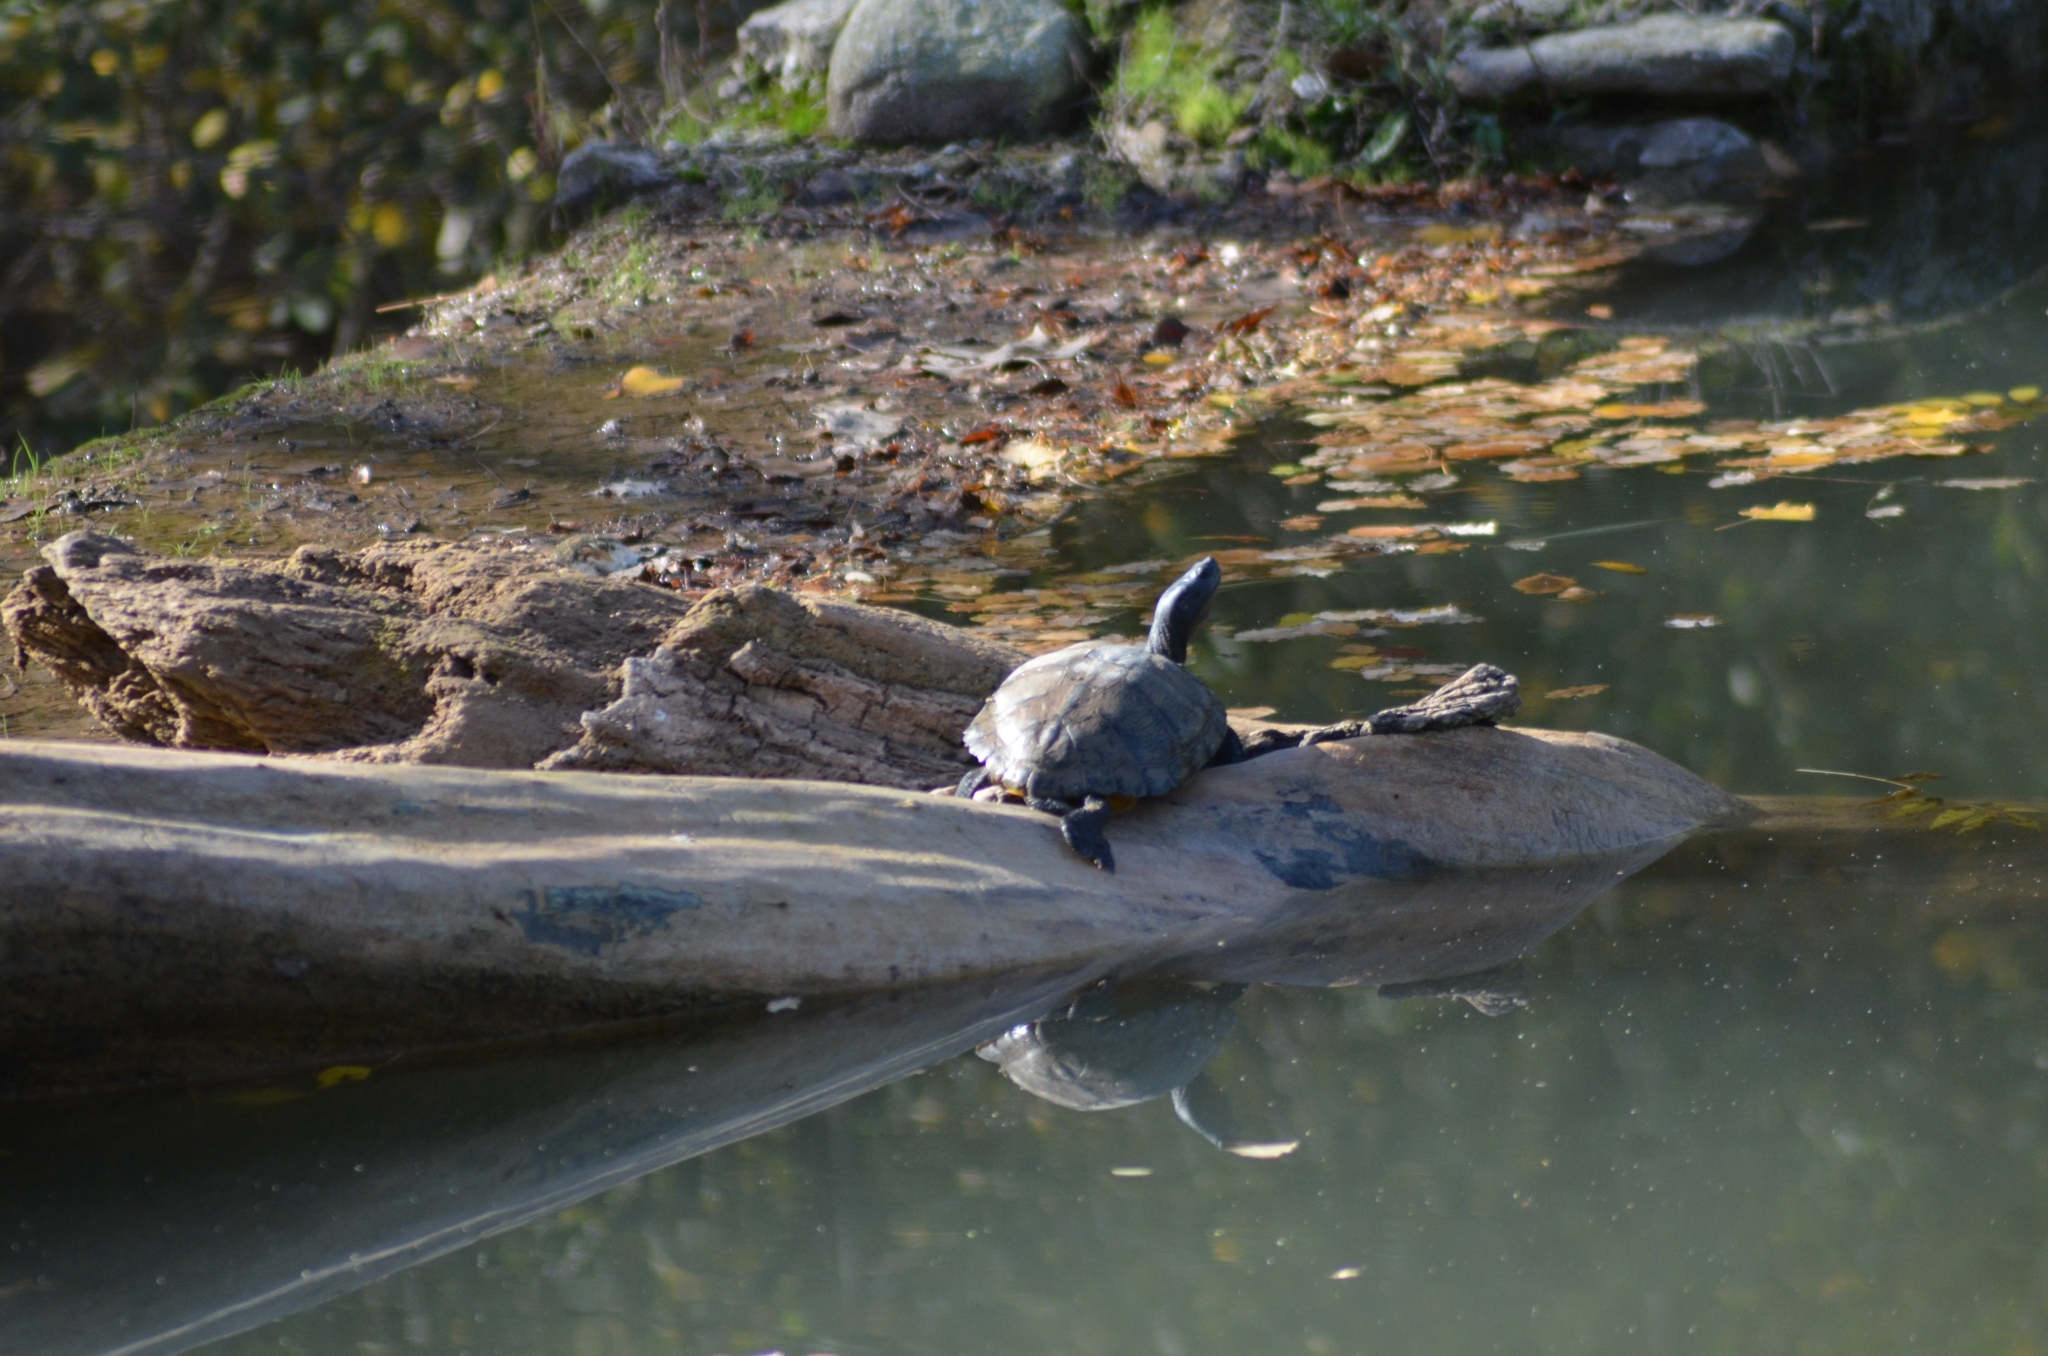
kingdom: Animalia
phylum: Chordata
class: Testudines
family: Emydidae
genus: Trachemys
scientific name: Trachemys scripta
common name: Slider
